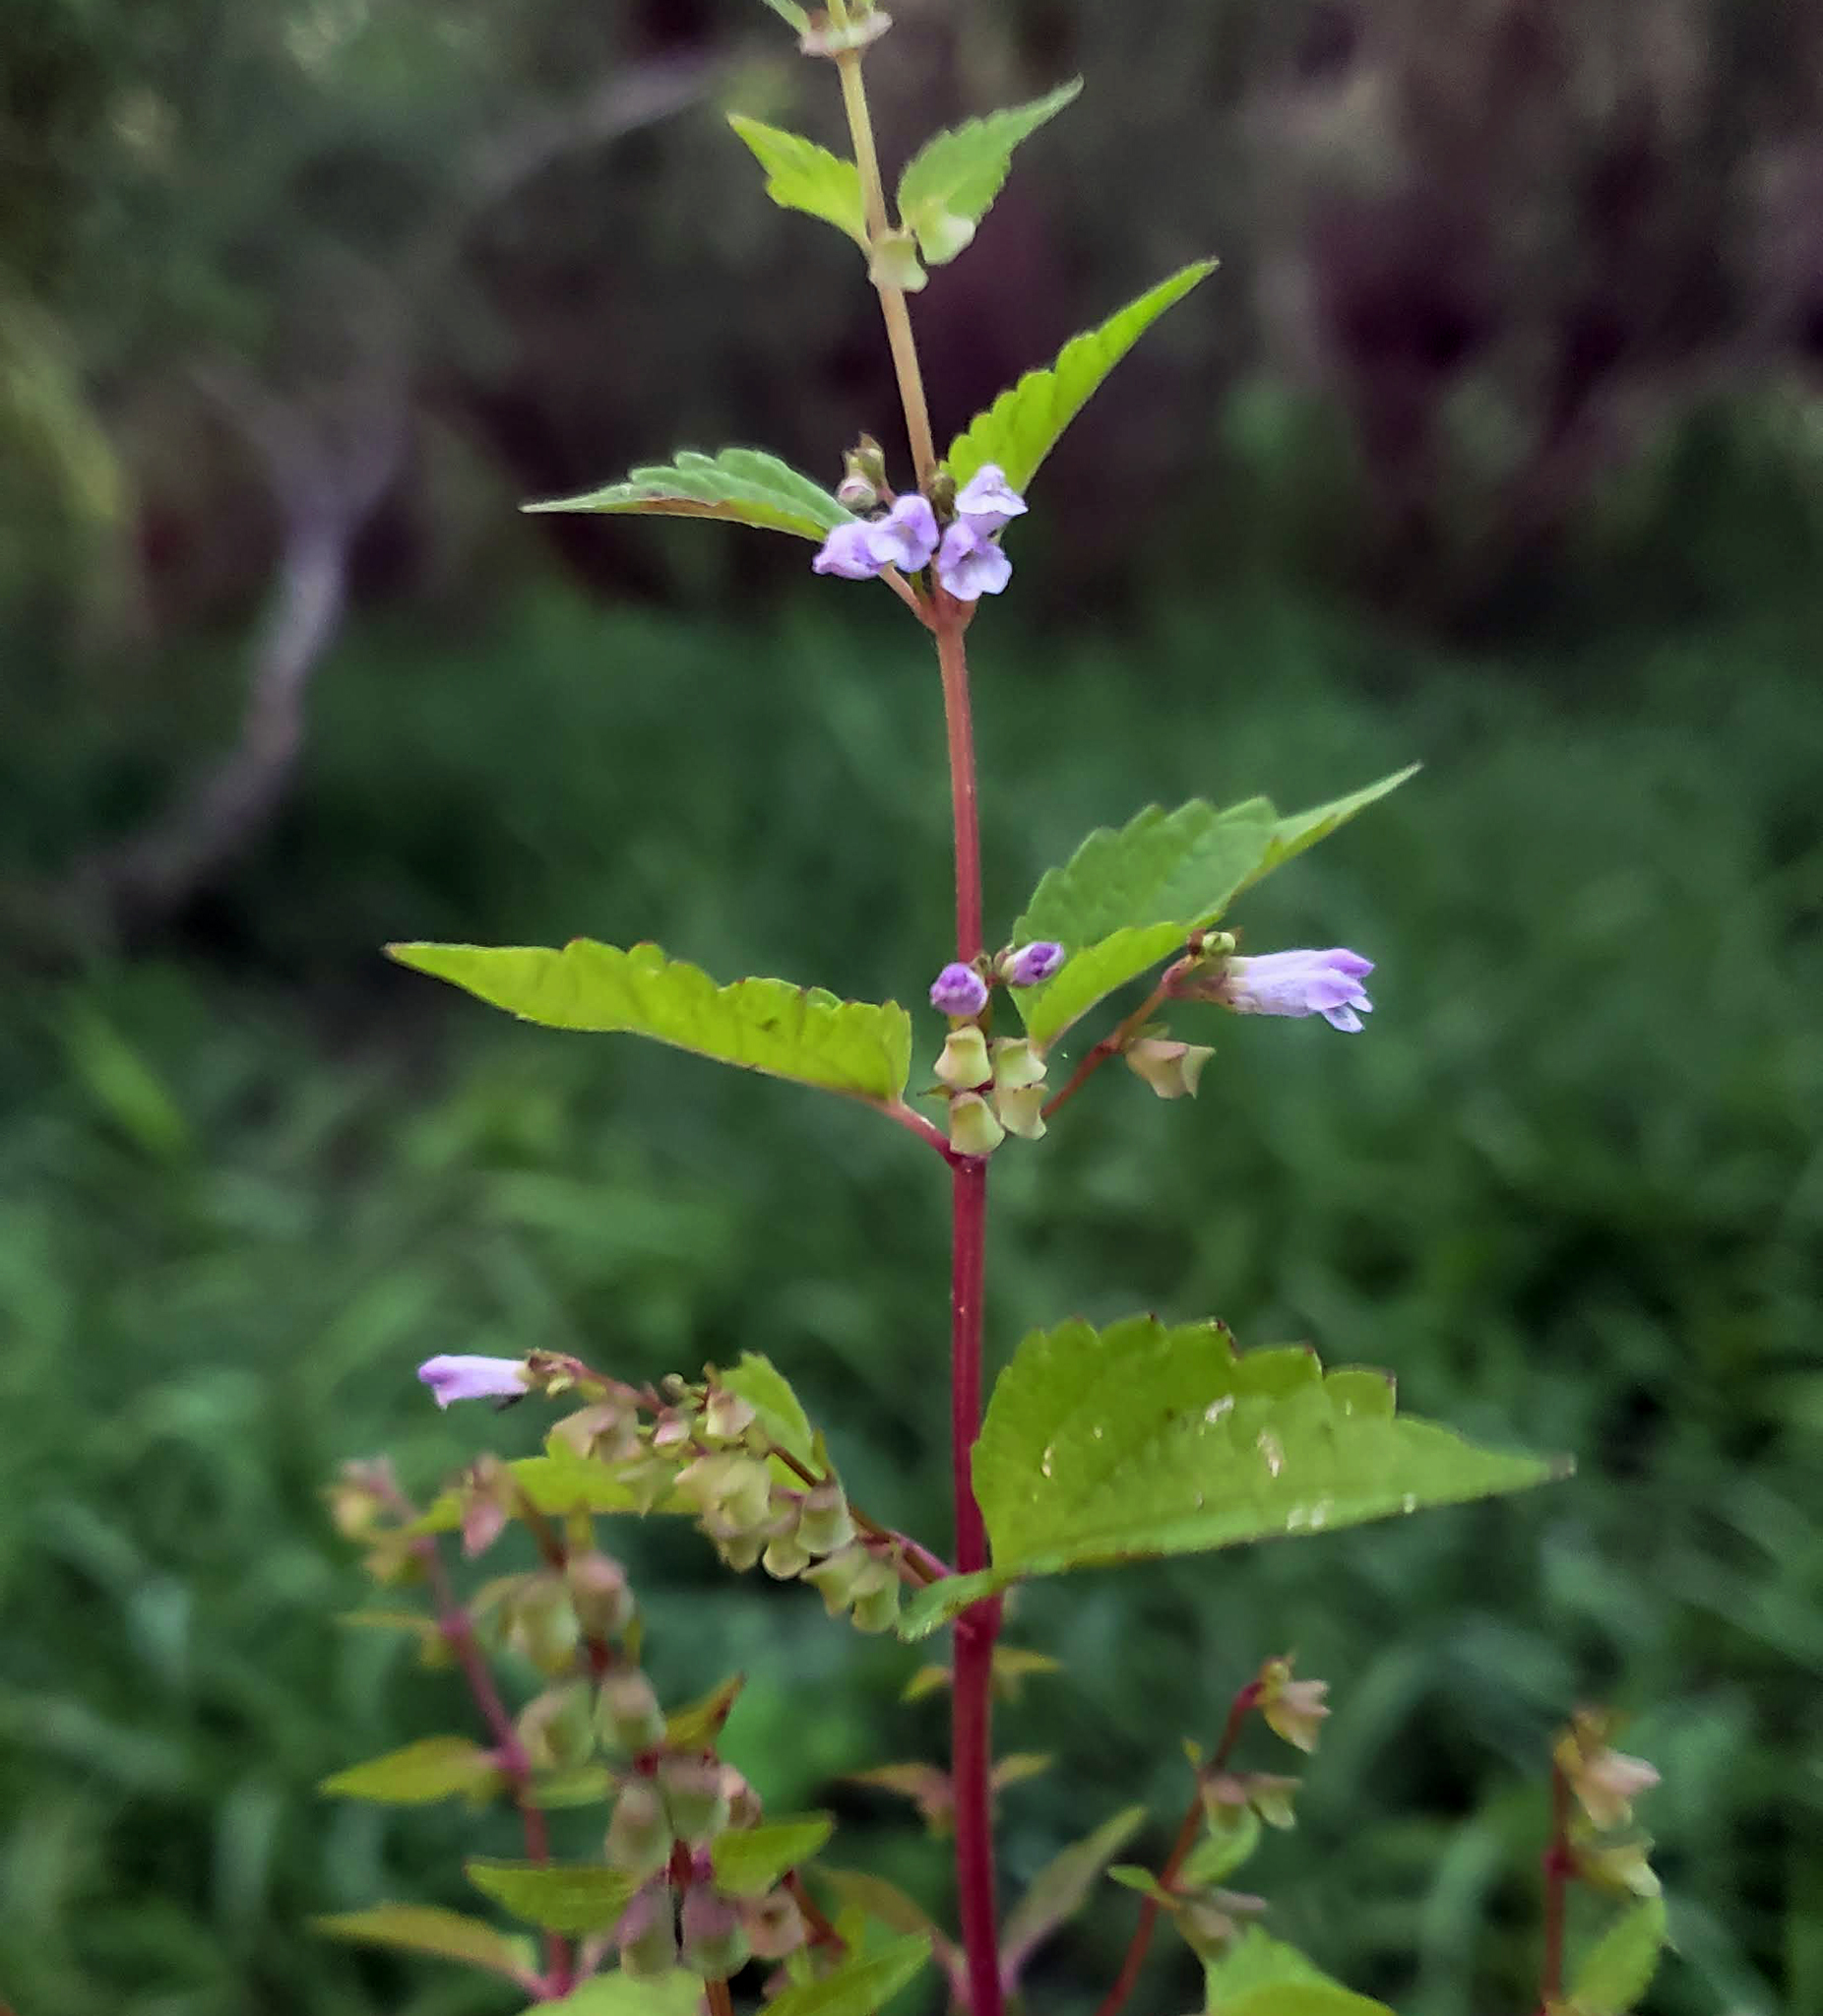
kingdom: Plantae
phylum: Tracheophyta
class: Magnoliopsida
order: Lamiales
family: Lamiaceae
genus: Scutellaria
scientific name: Scutellaria lateriflora
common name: Blue skullcap
